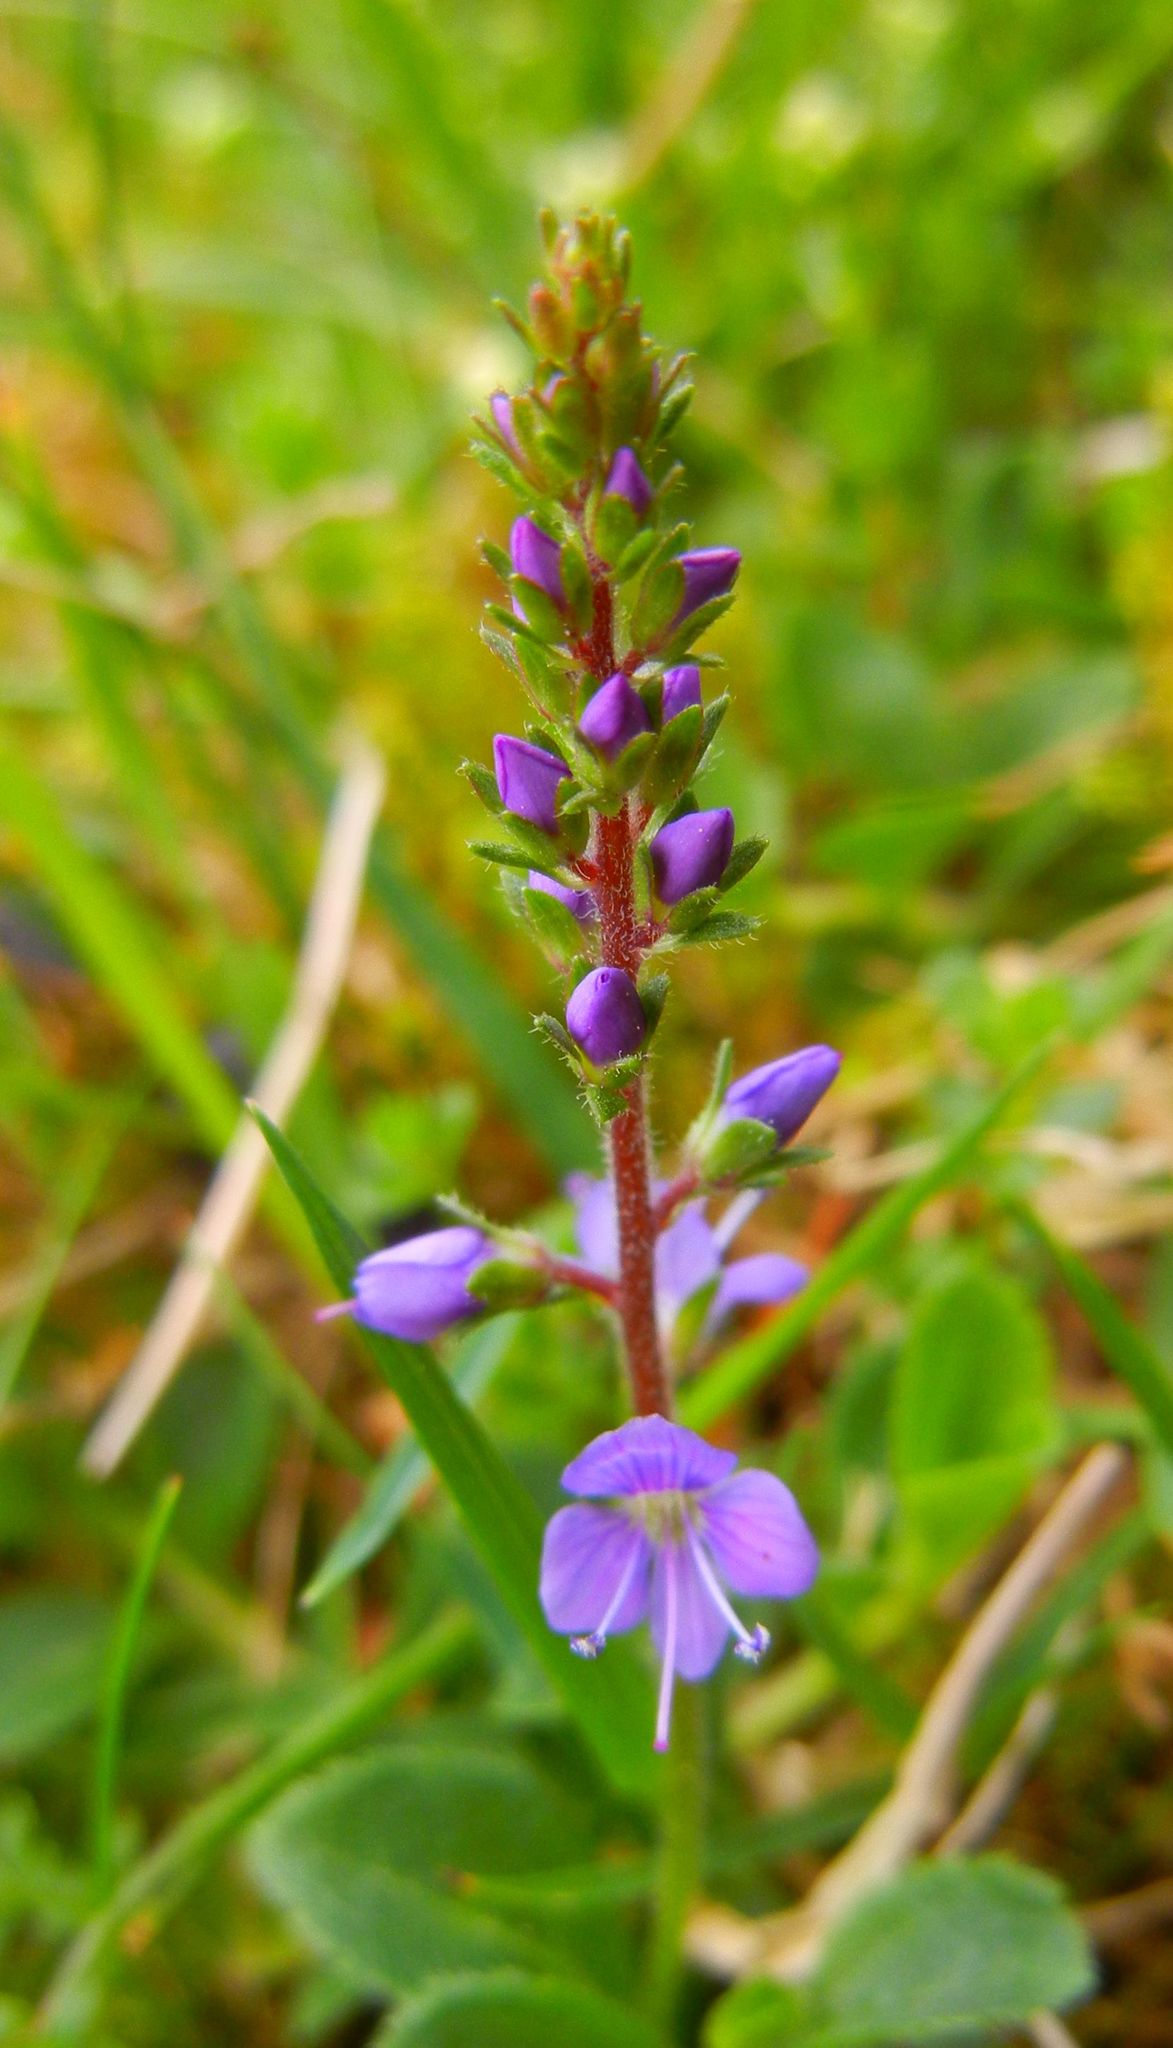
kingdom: Plantae
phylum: Tracheophyta
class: Magnoliopsida
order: Lamiales
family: Plantaginaceae
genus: Veronica
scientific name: Veronica officinalis
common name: Common speedwell
